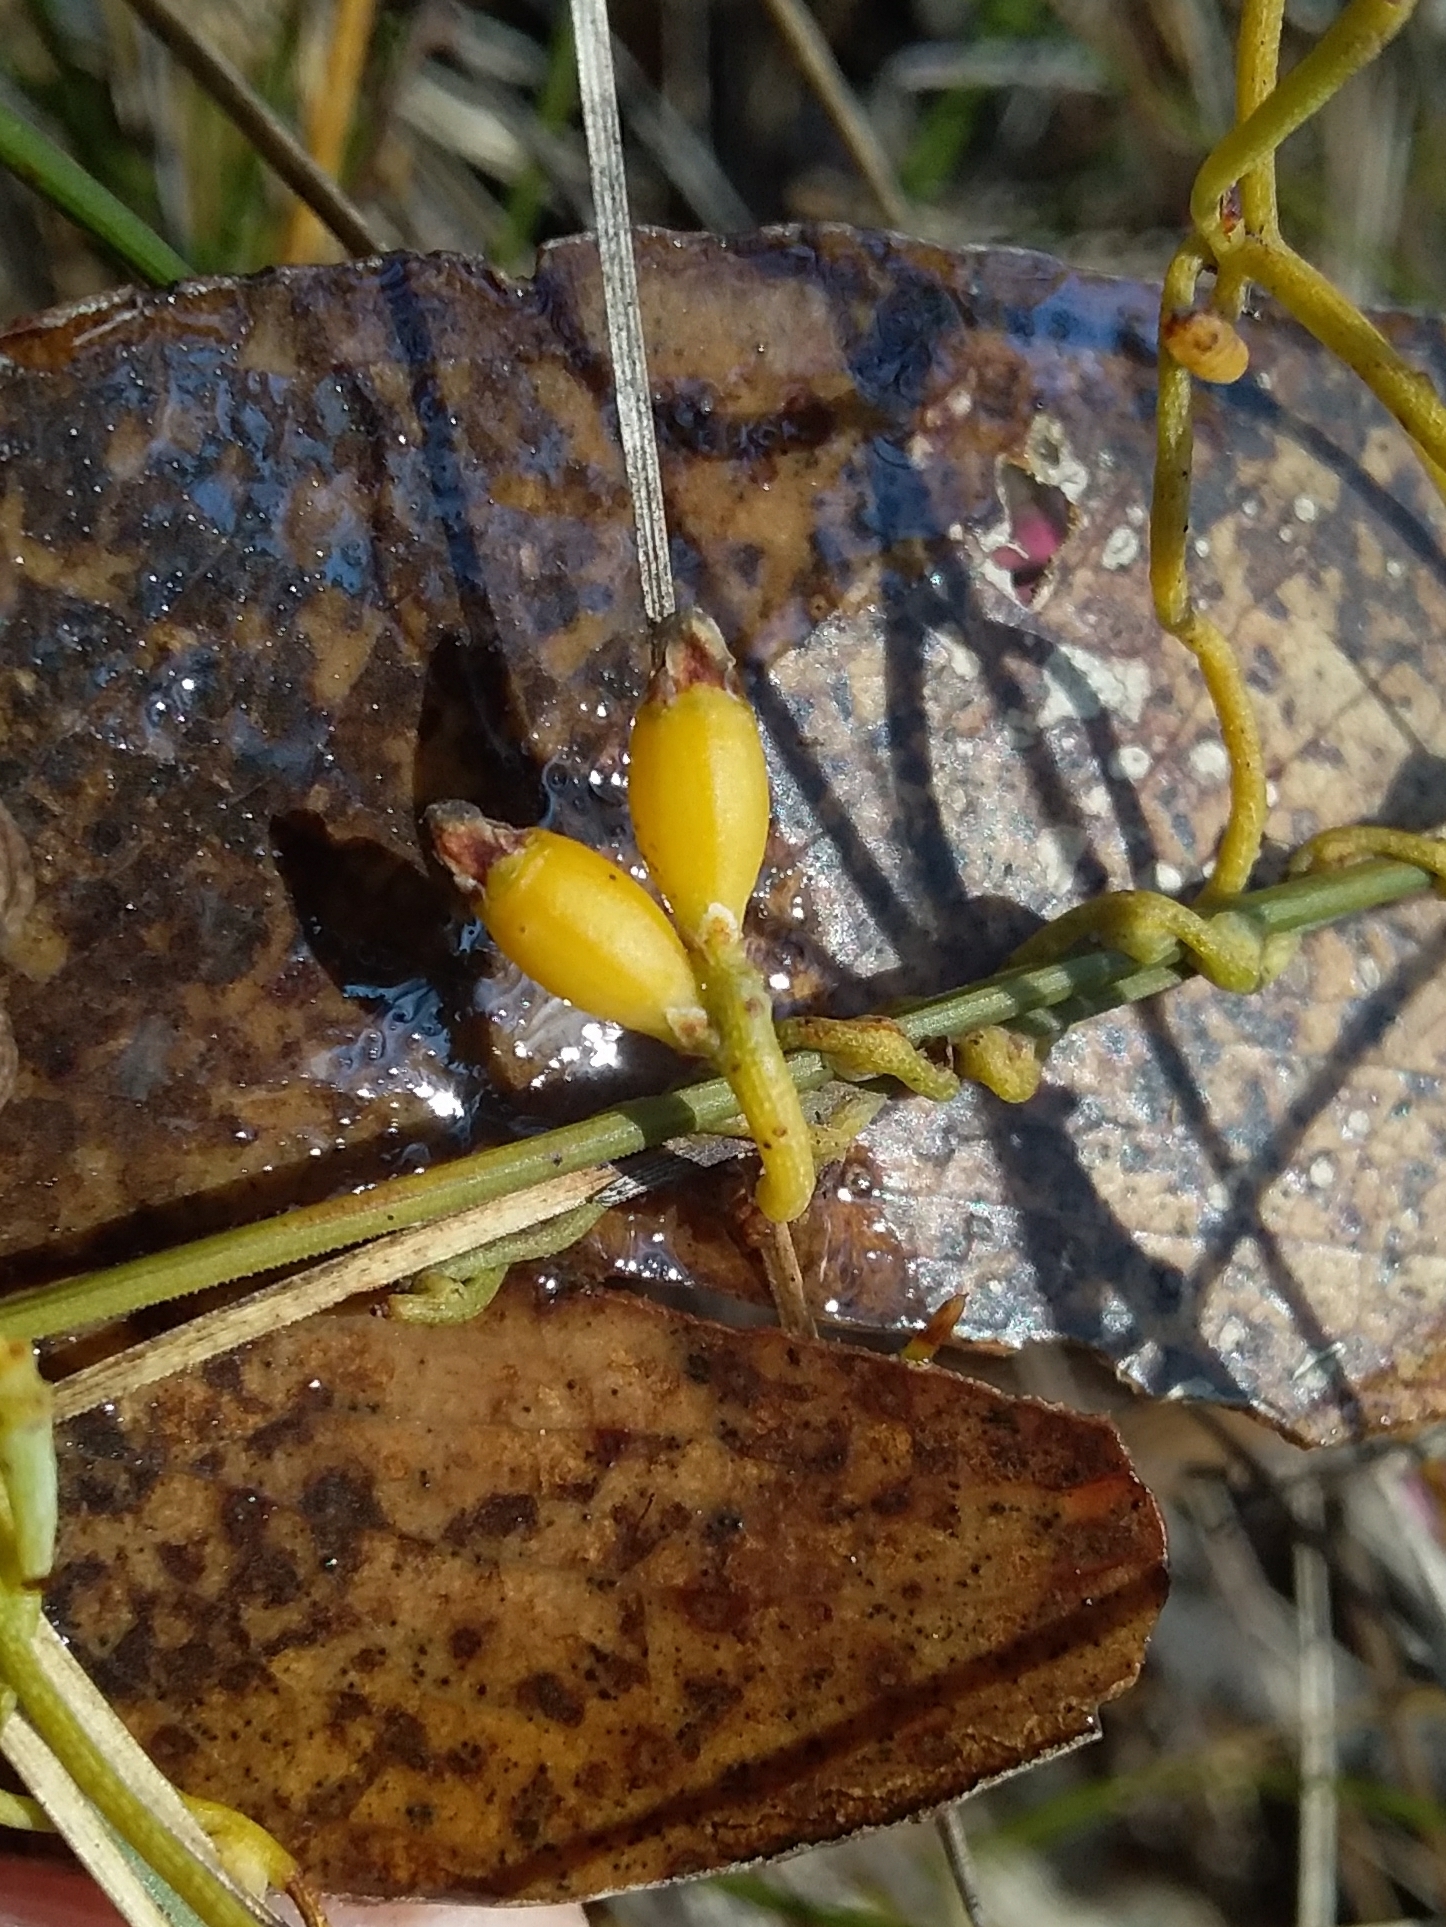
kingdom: Plantae
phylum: Tracheophyta
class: Magnoliopsida
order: Laurales
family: Lauraceae
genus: Cassytha
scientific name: Cassytha glabella
